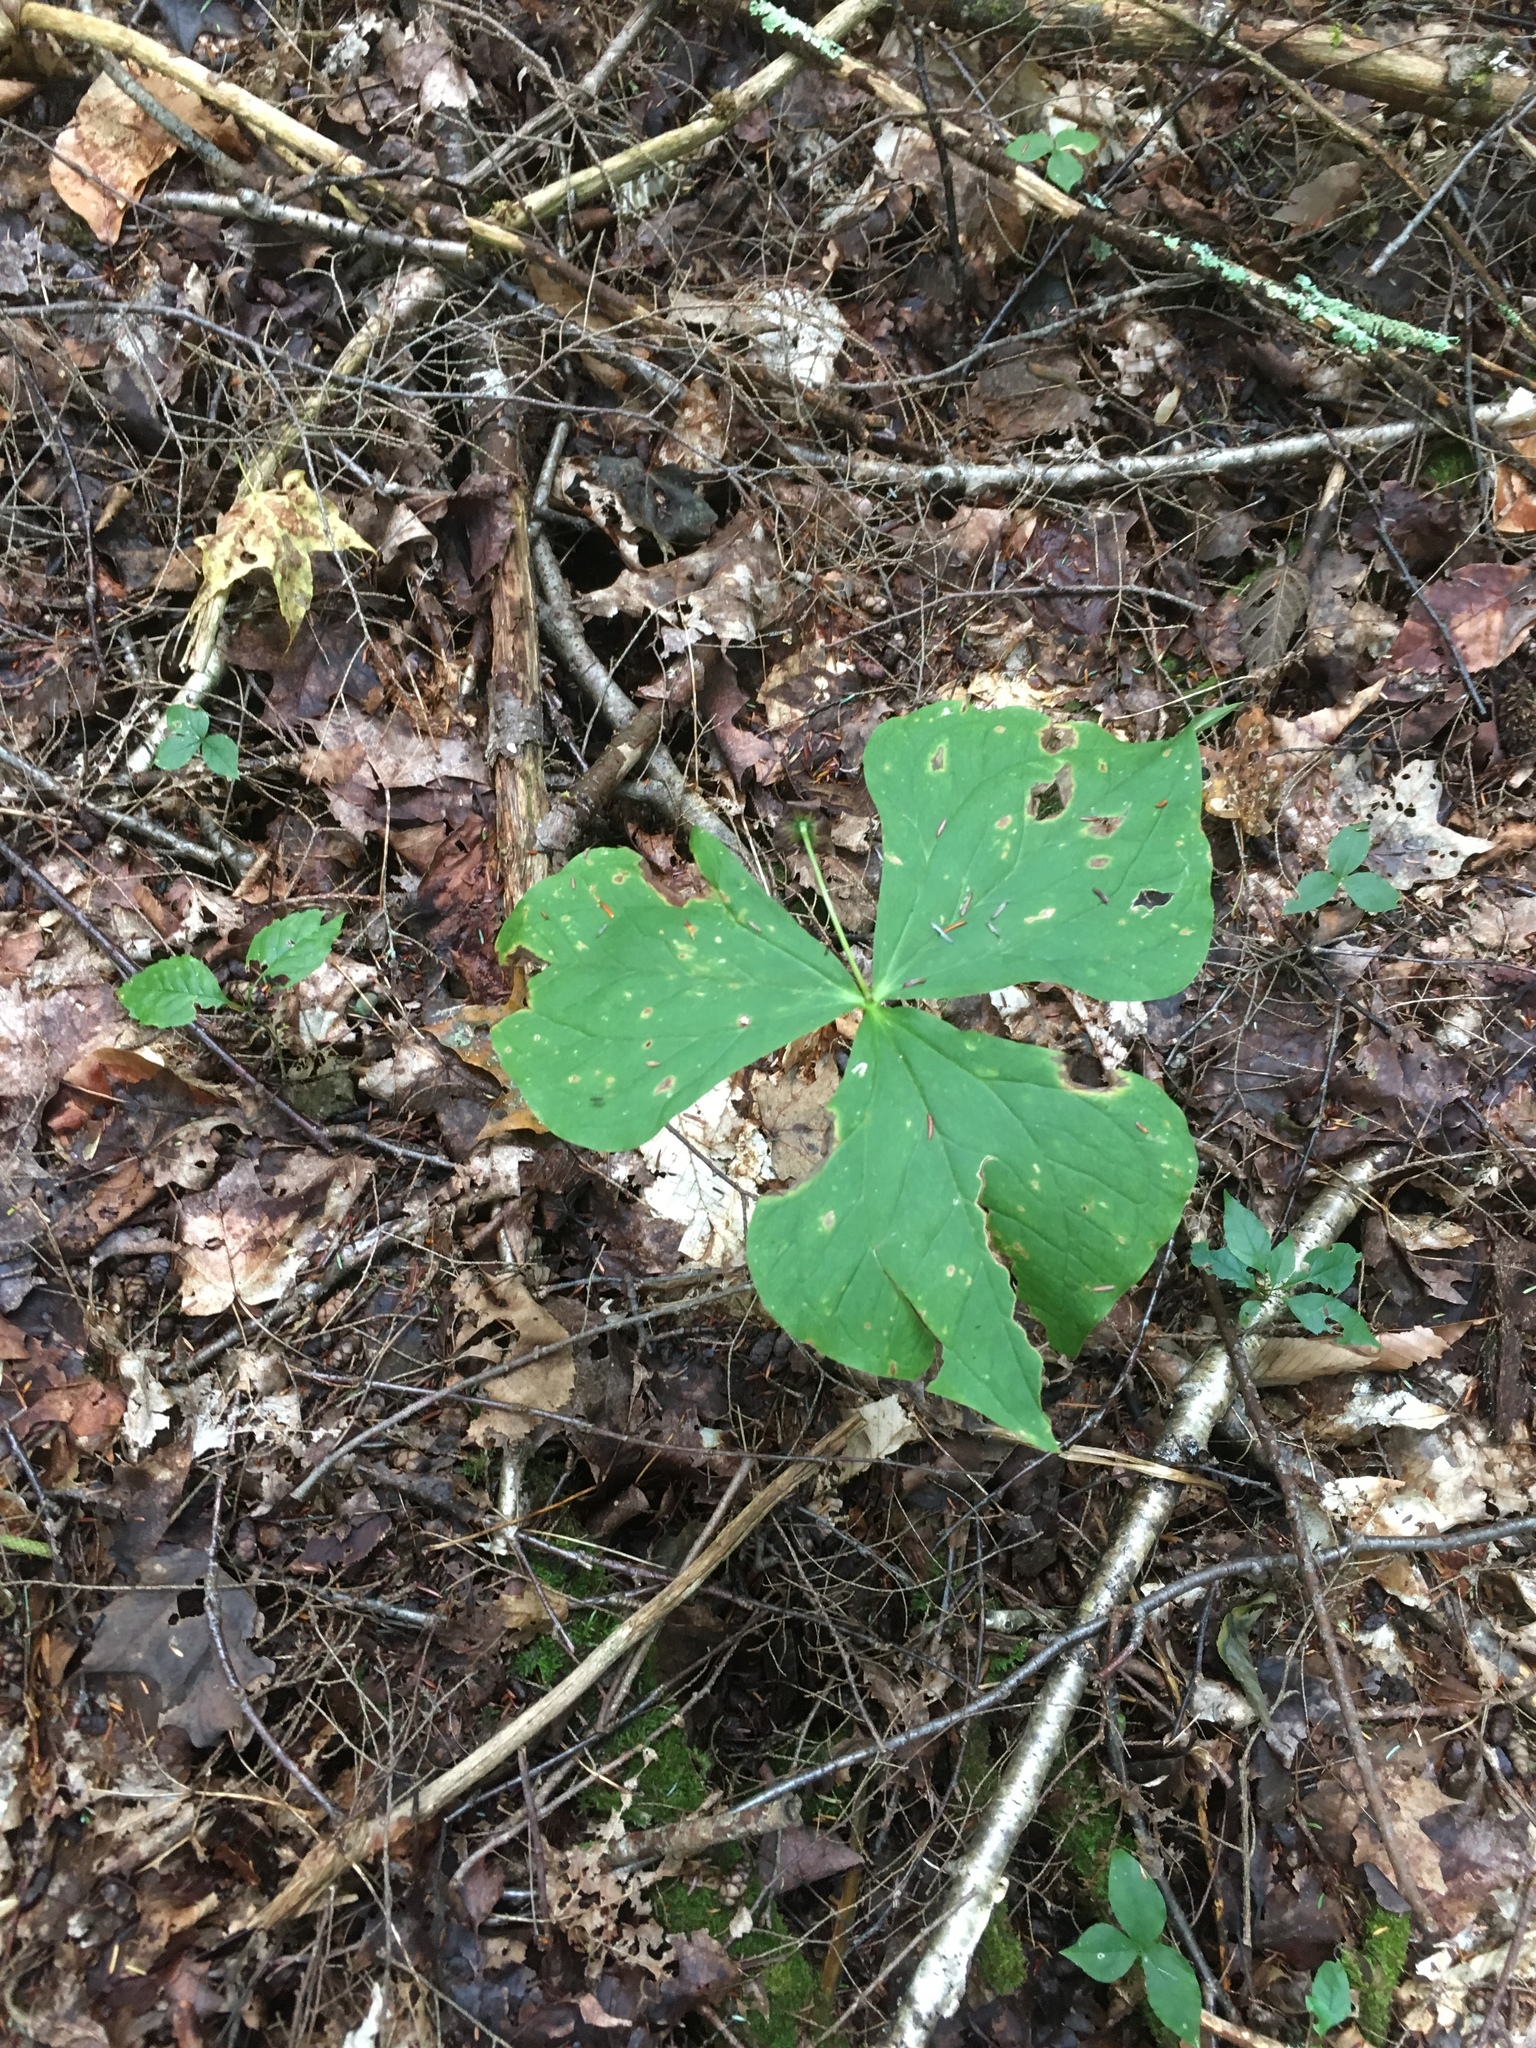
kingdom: Plantae
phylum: Tracheophyta
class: Liliopsida
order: Liliales
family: Melanthiaceae
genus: Trillium
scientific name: Trillium erectum
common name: Purple trillium
